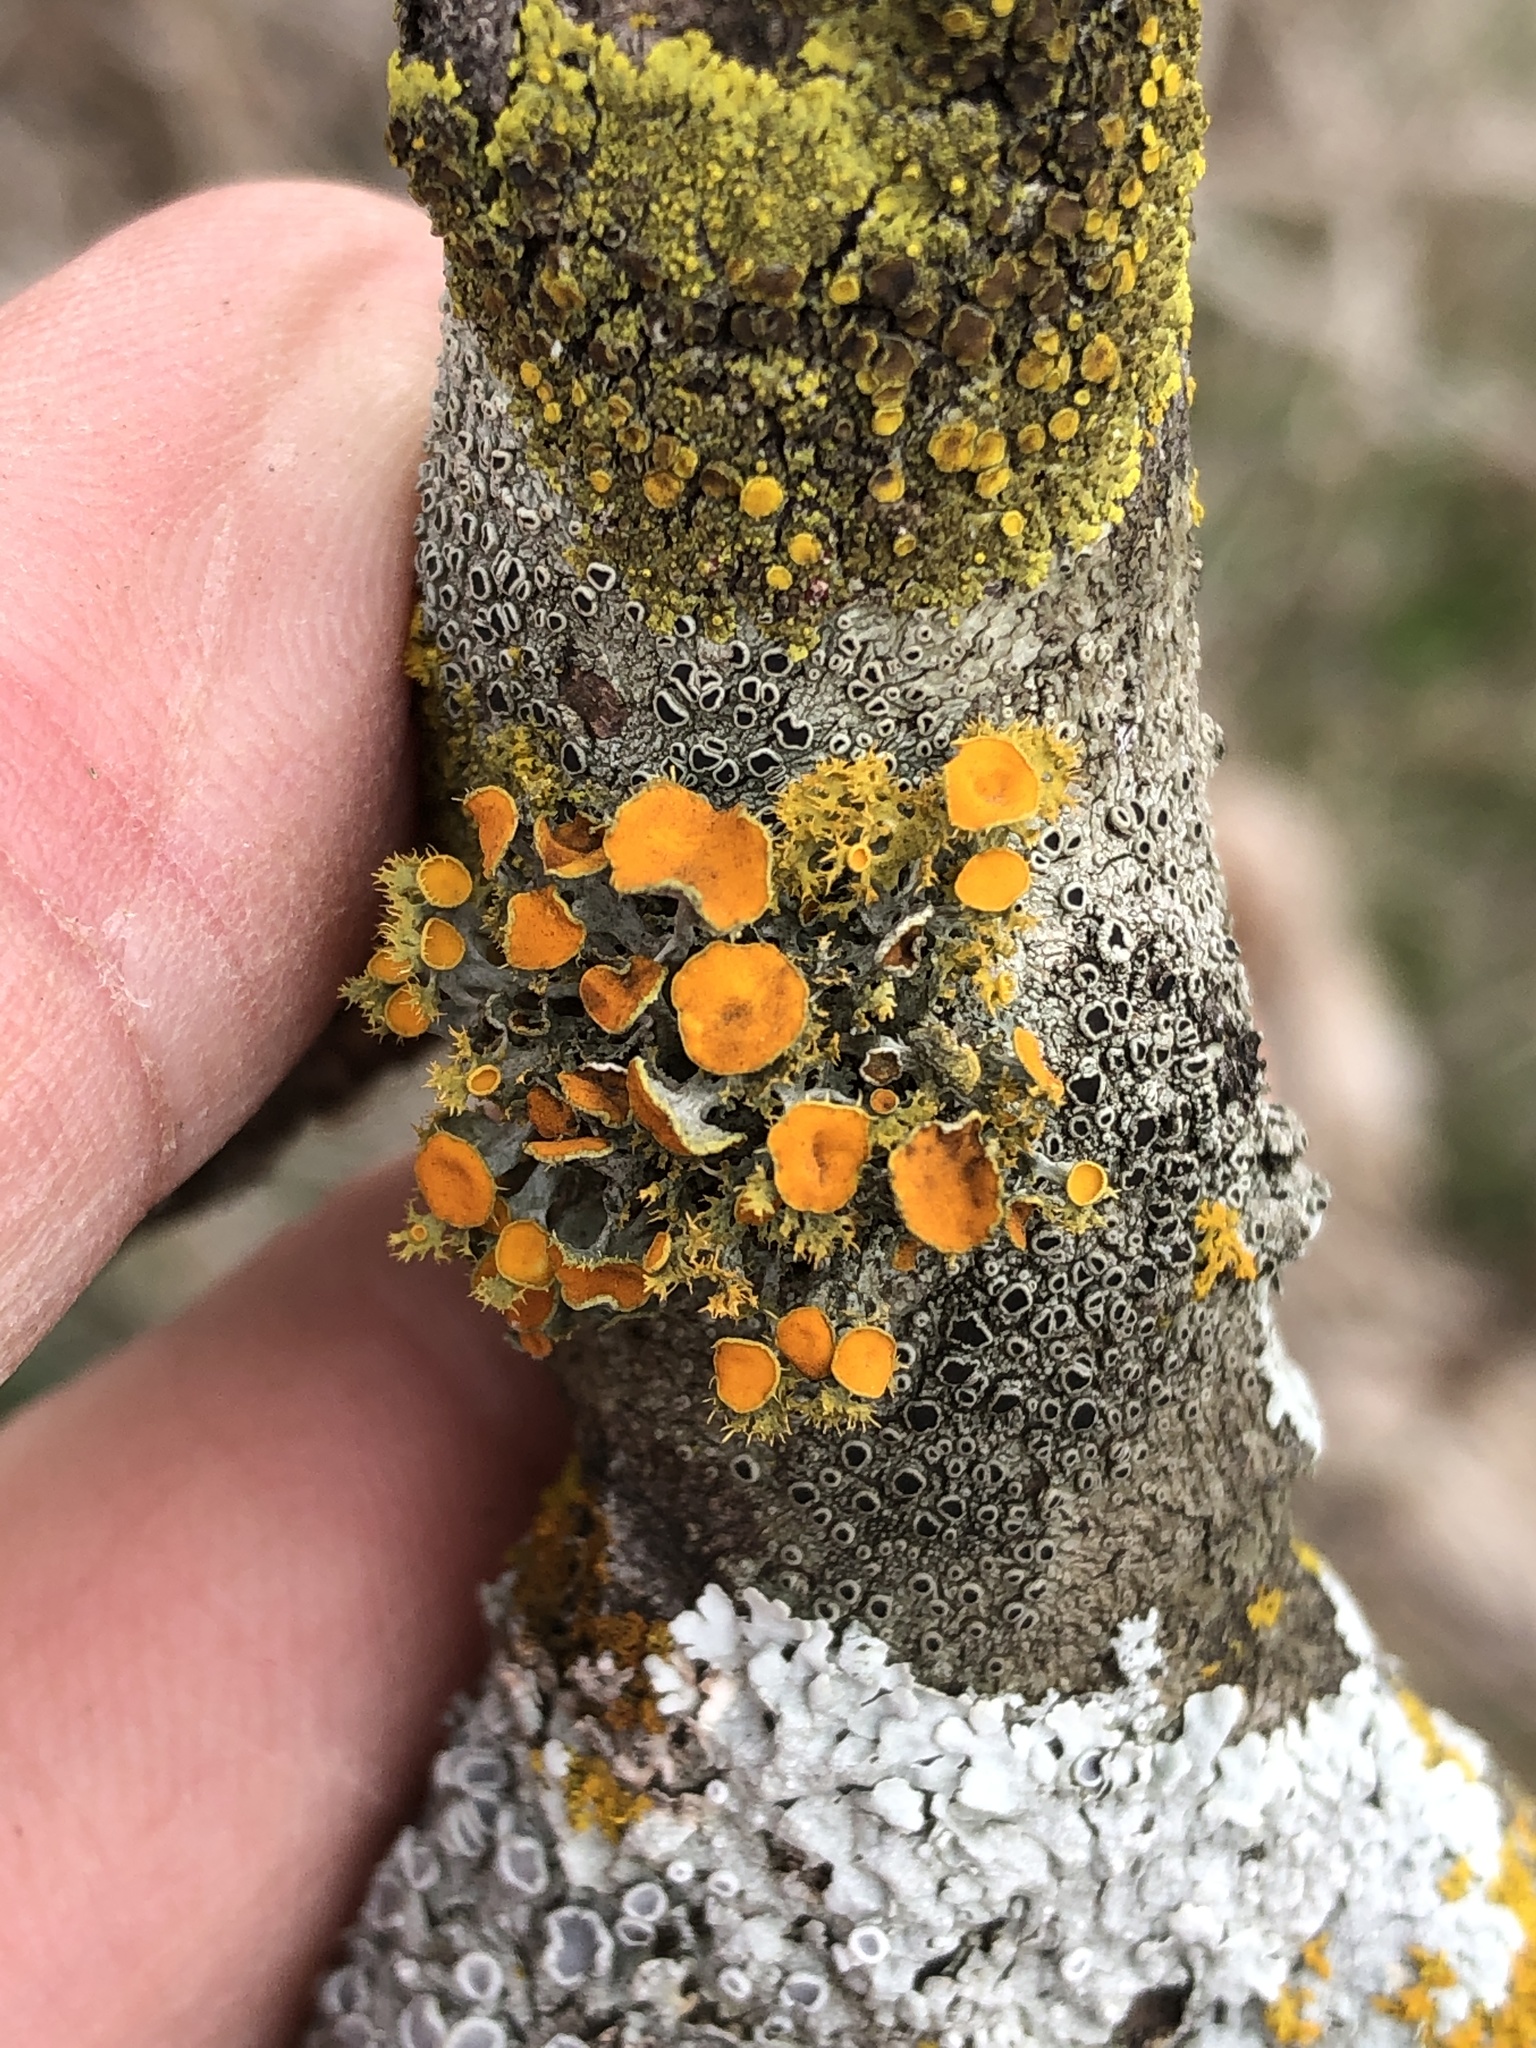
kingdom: Fungi
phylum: Ascomycota
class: Lecanoromycetes
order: Teloschistales
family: Teloschistaceae
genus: Niorma
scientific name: Niorma chrysophthalma
